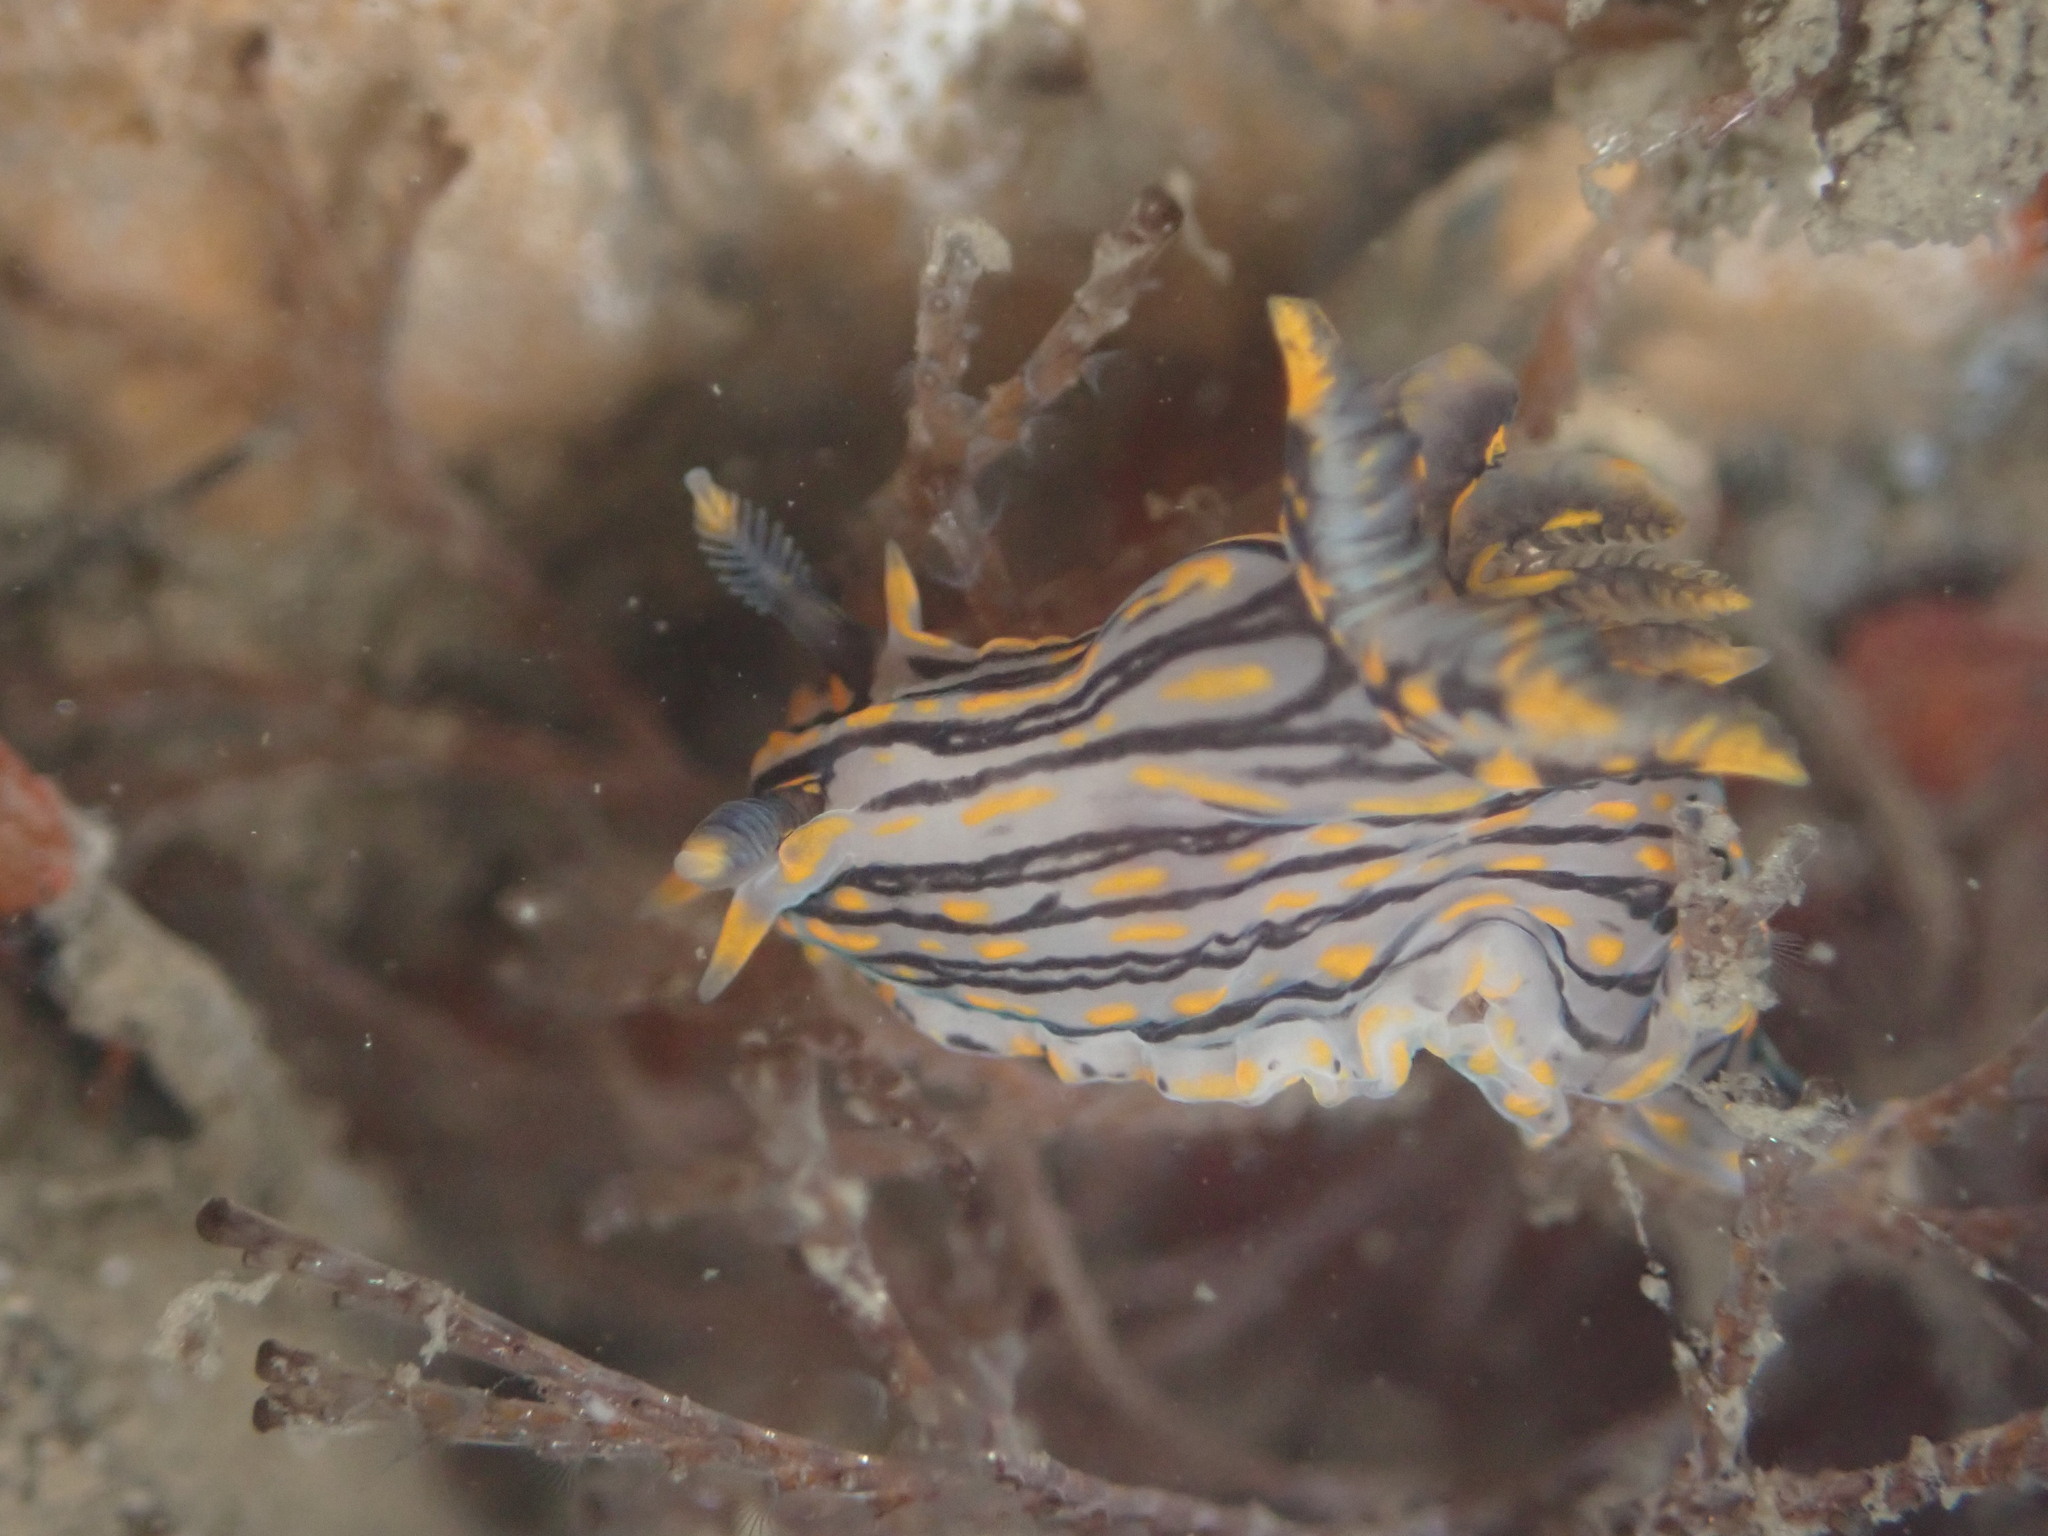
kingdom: Animalia
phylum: Mollusca
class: Gastropoda
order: Nudibranchia
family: Polyceridae
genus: Polycera
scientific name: Polycera atra
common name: Orange-spike polycera
